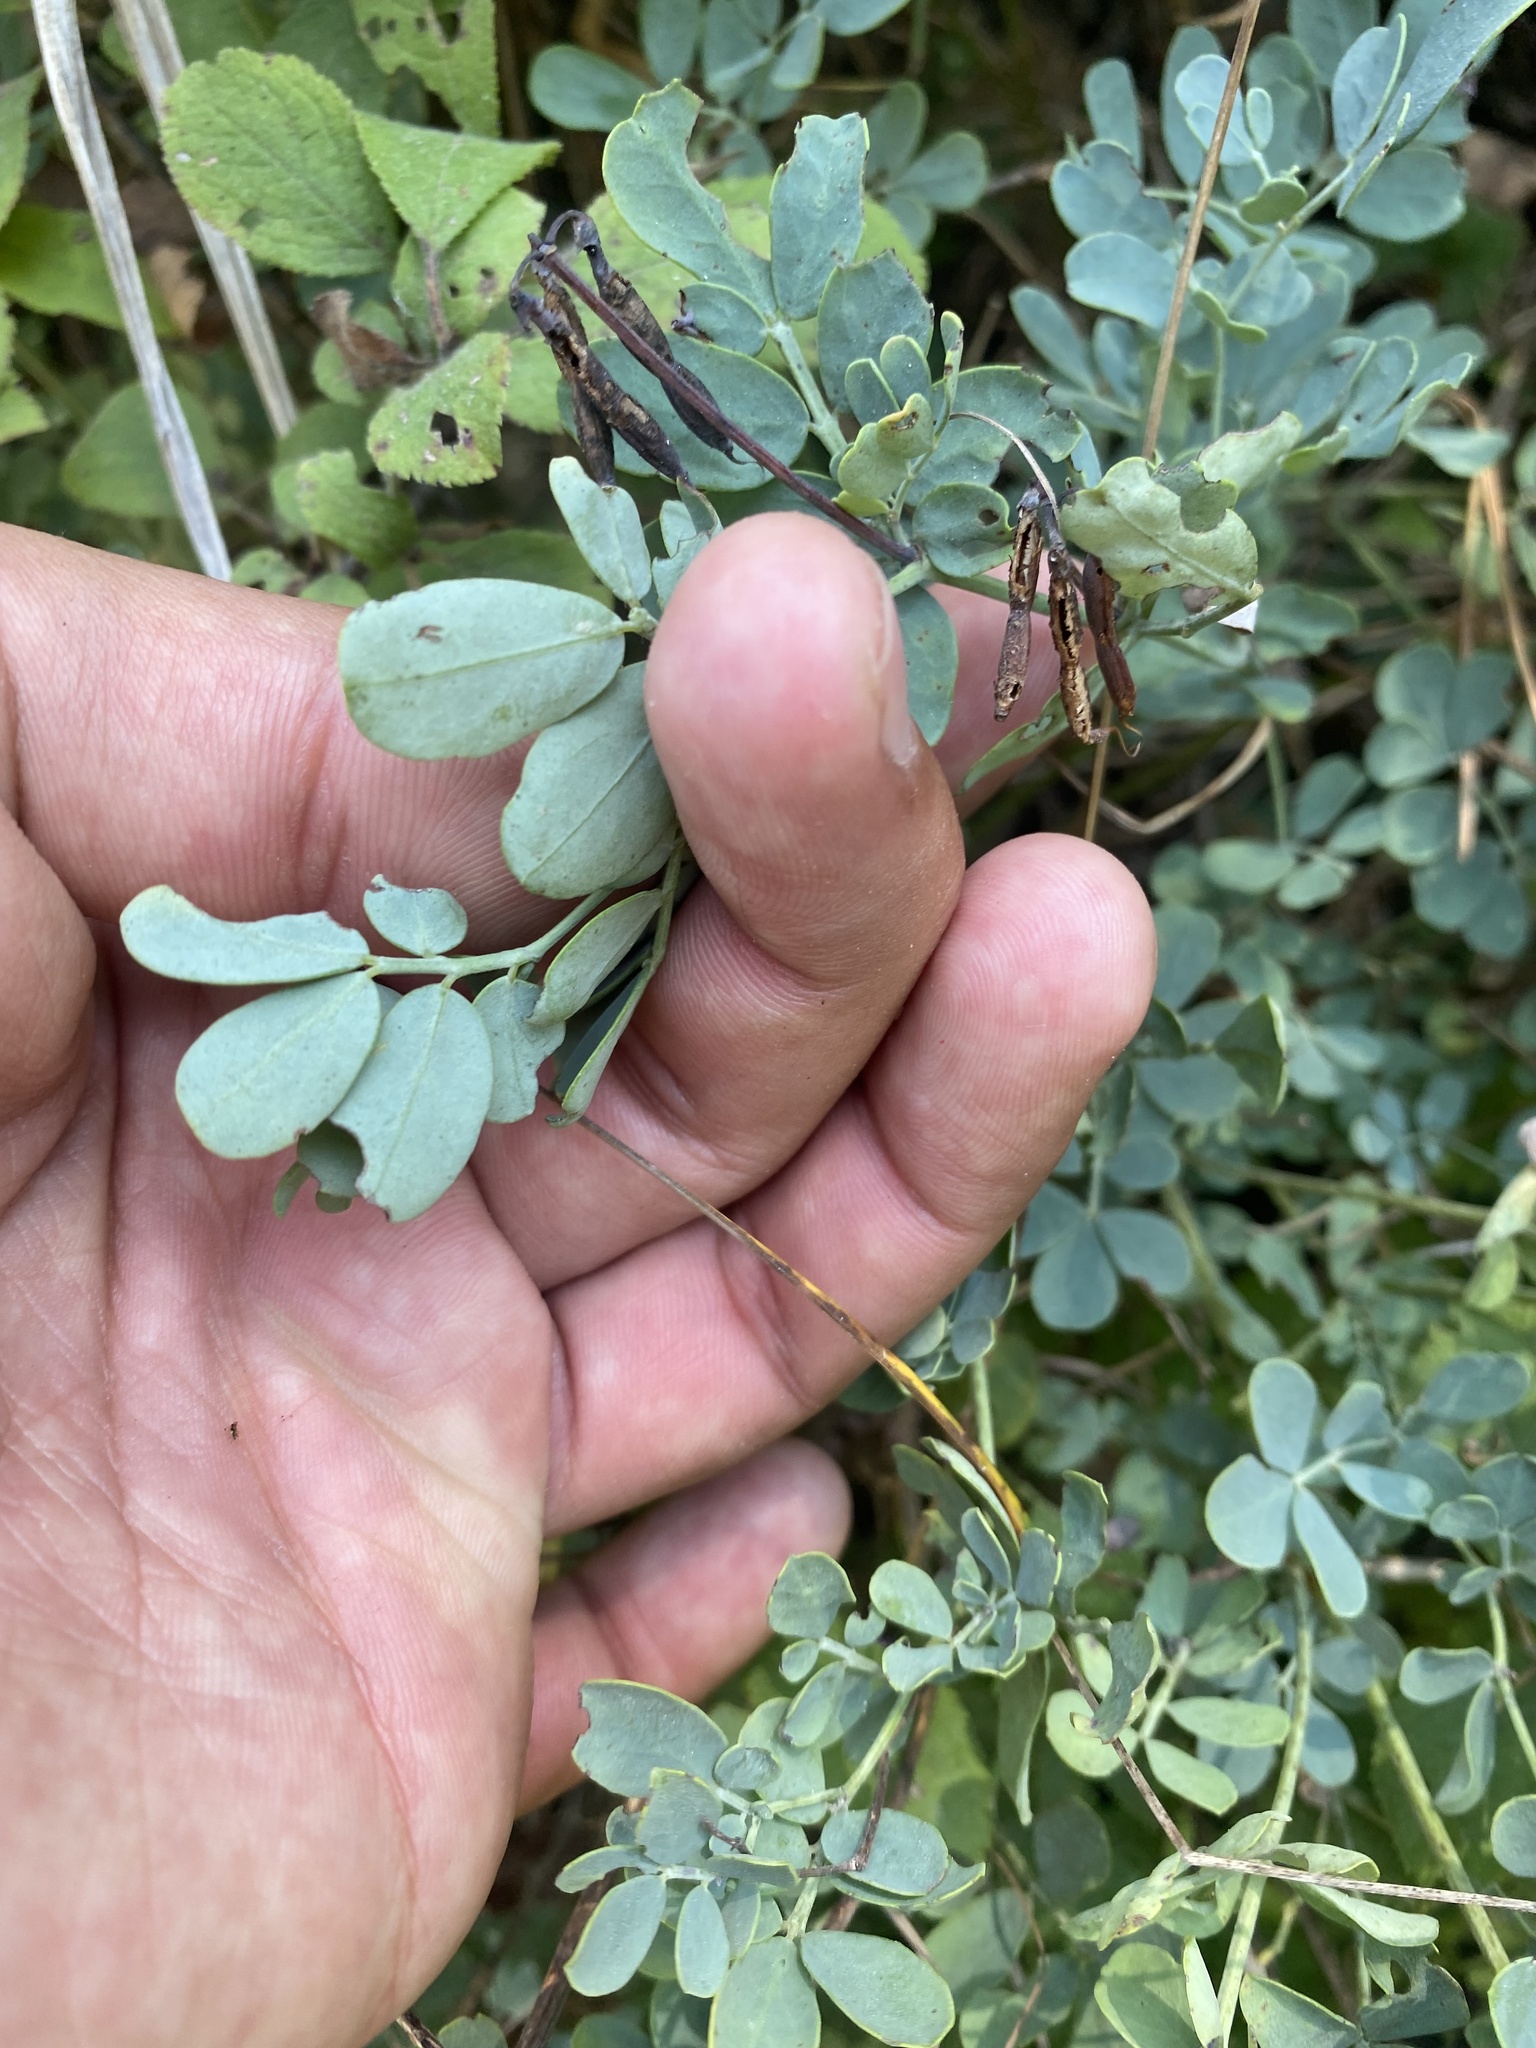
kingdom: Plantae
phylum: Tracheophyta
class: Magnoliopsida
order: Fabales
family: Fabaceae
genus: Coronilla
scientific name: Coronilla coronata
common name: Scorpion-vetch
